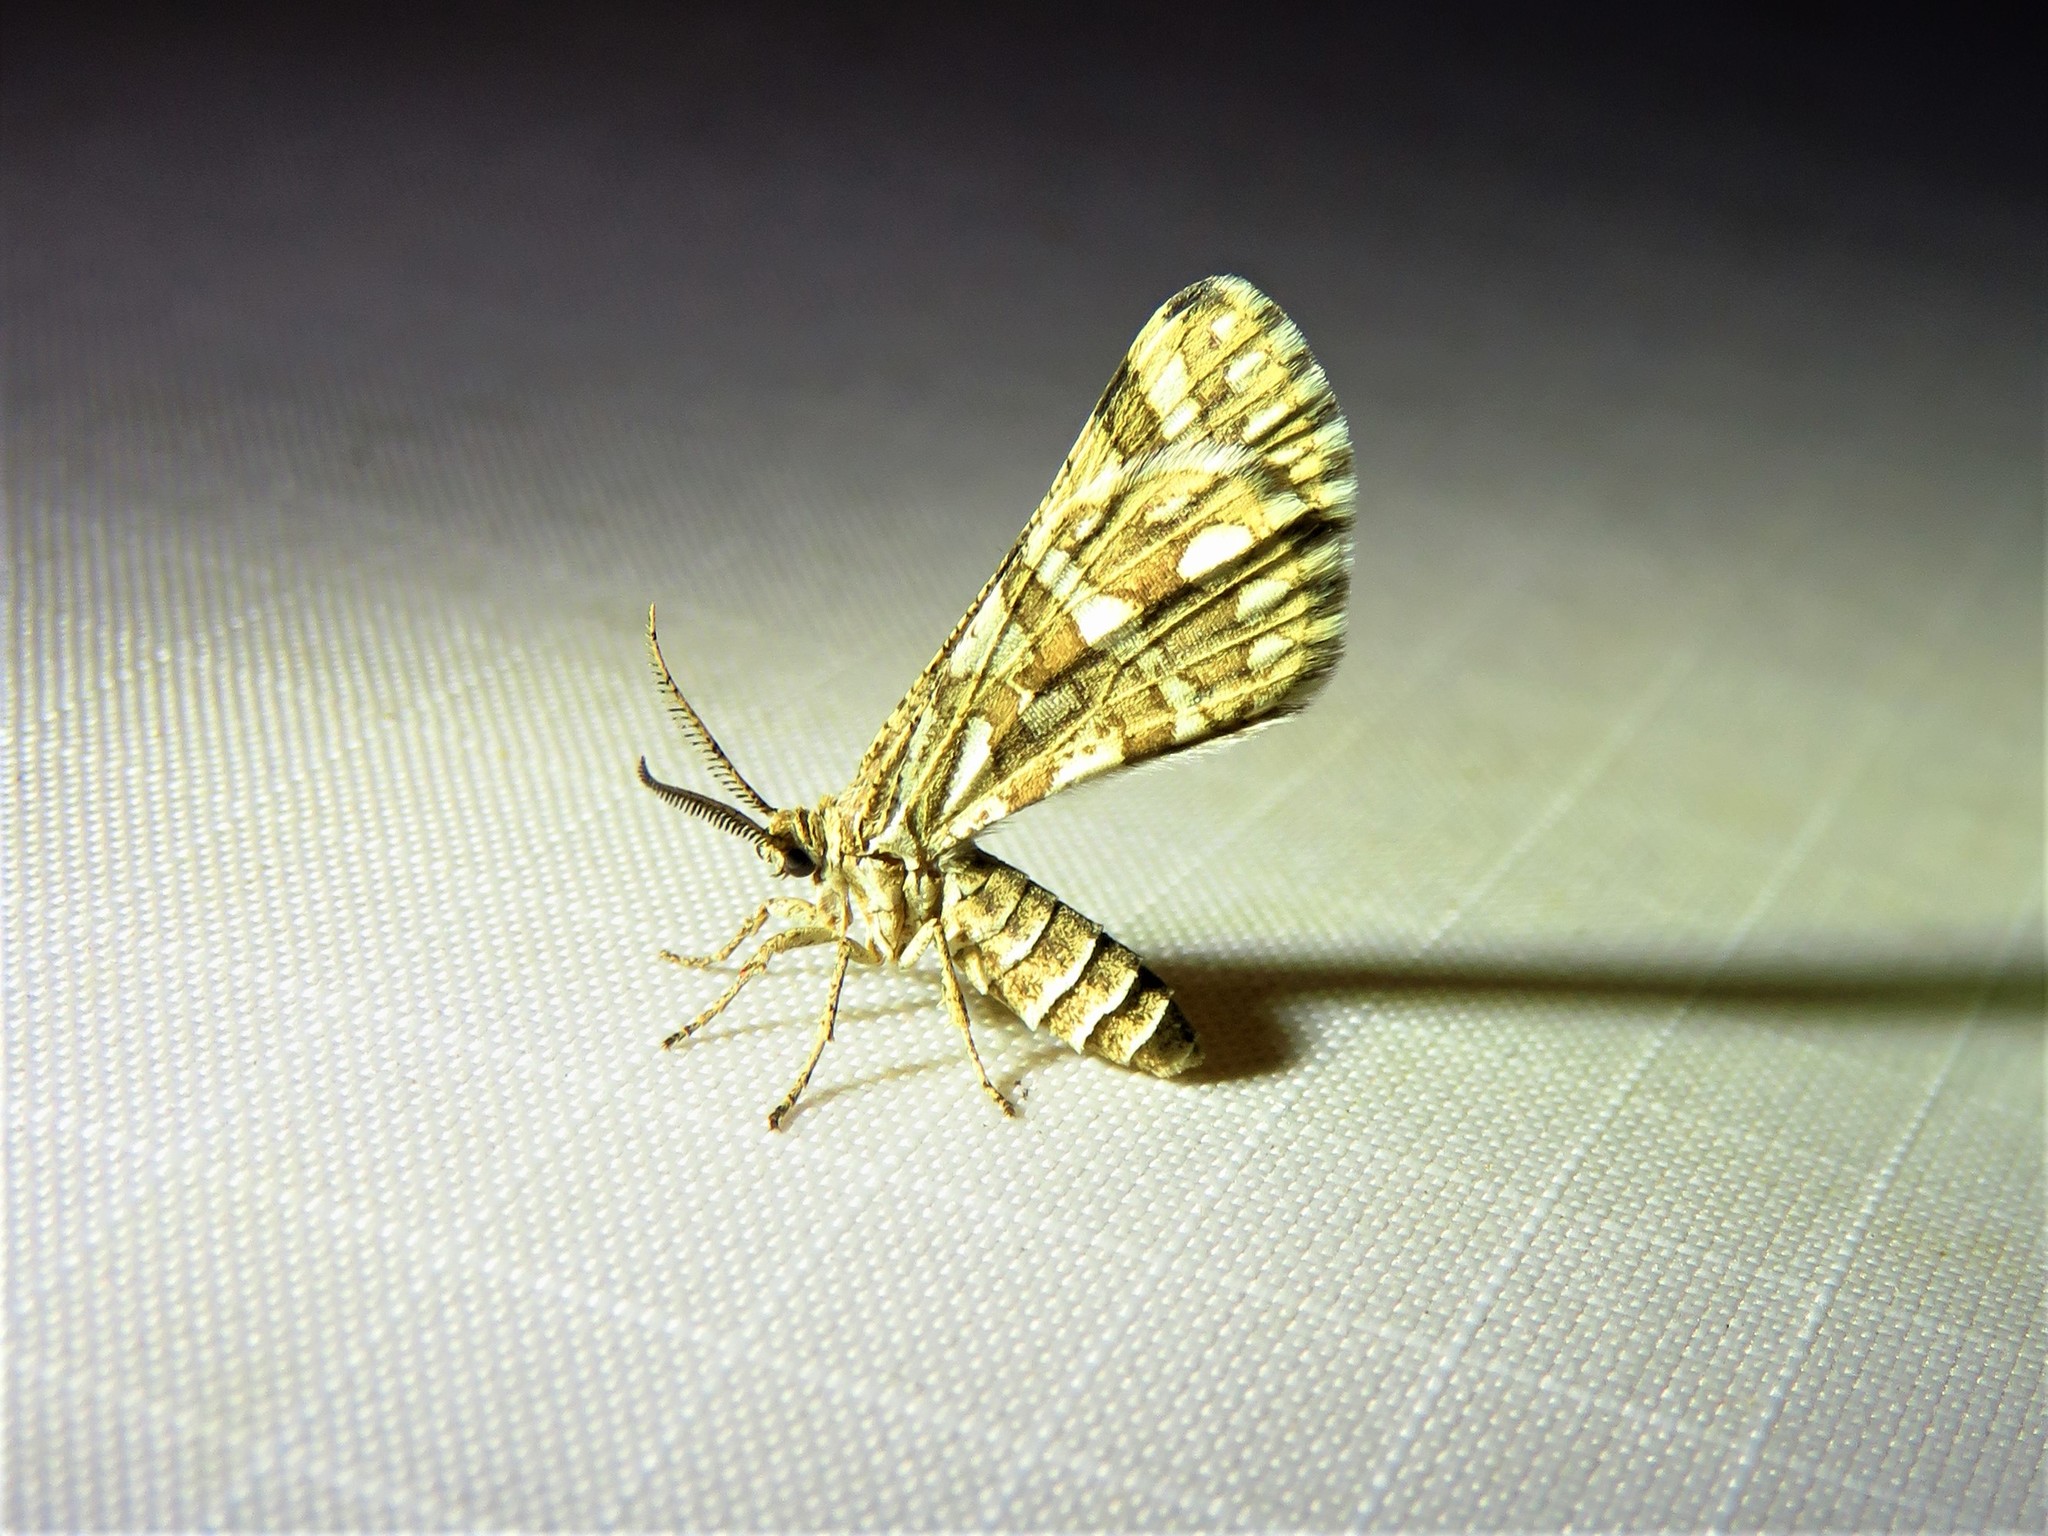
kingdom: Animalia
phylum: Arthropoda
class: Insecta
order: Lepidoptera
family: Geometridae
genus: Narraga
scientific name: Narraga fimetaria
